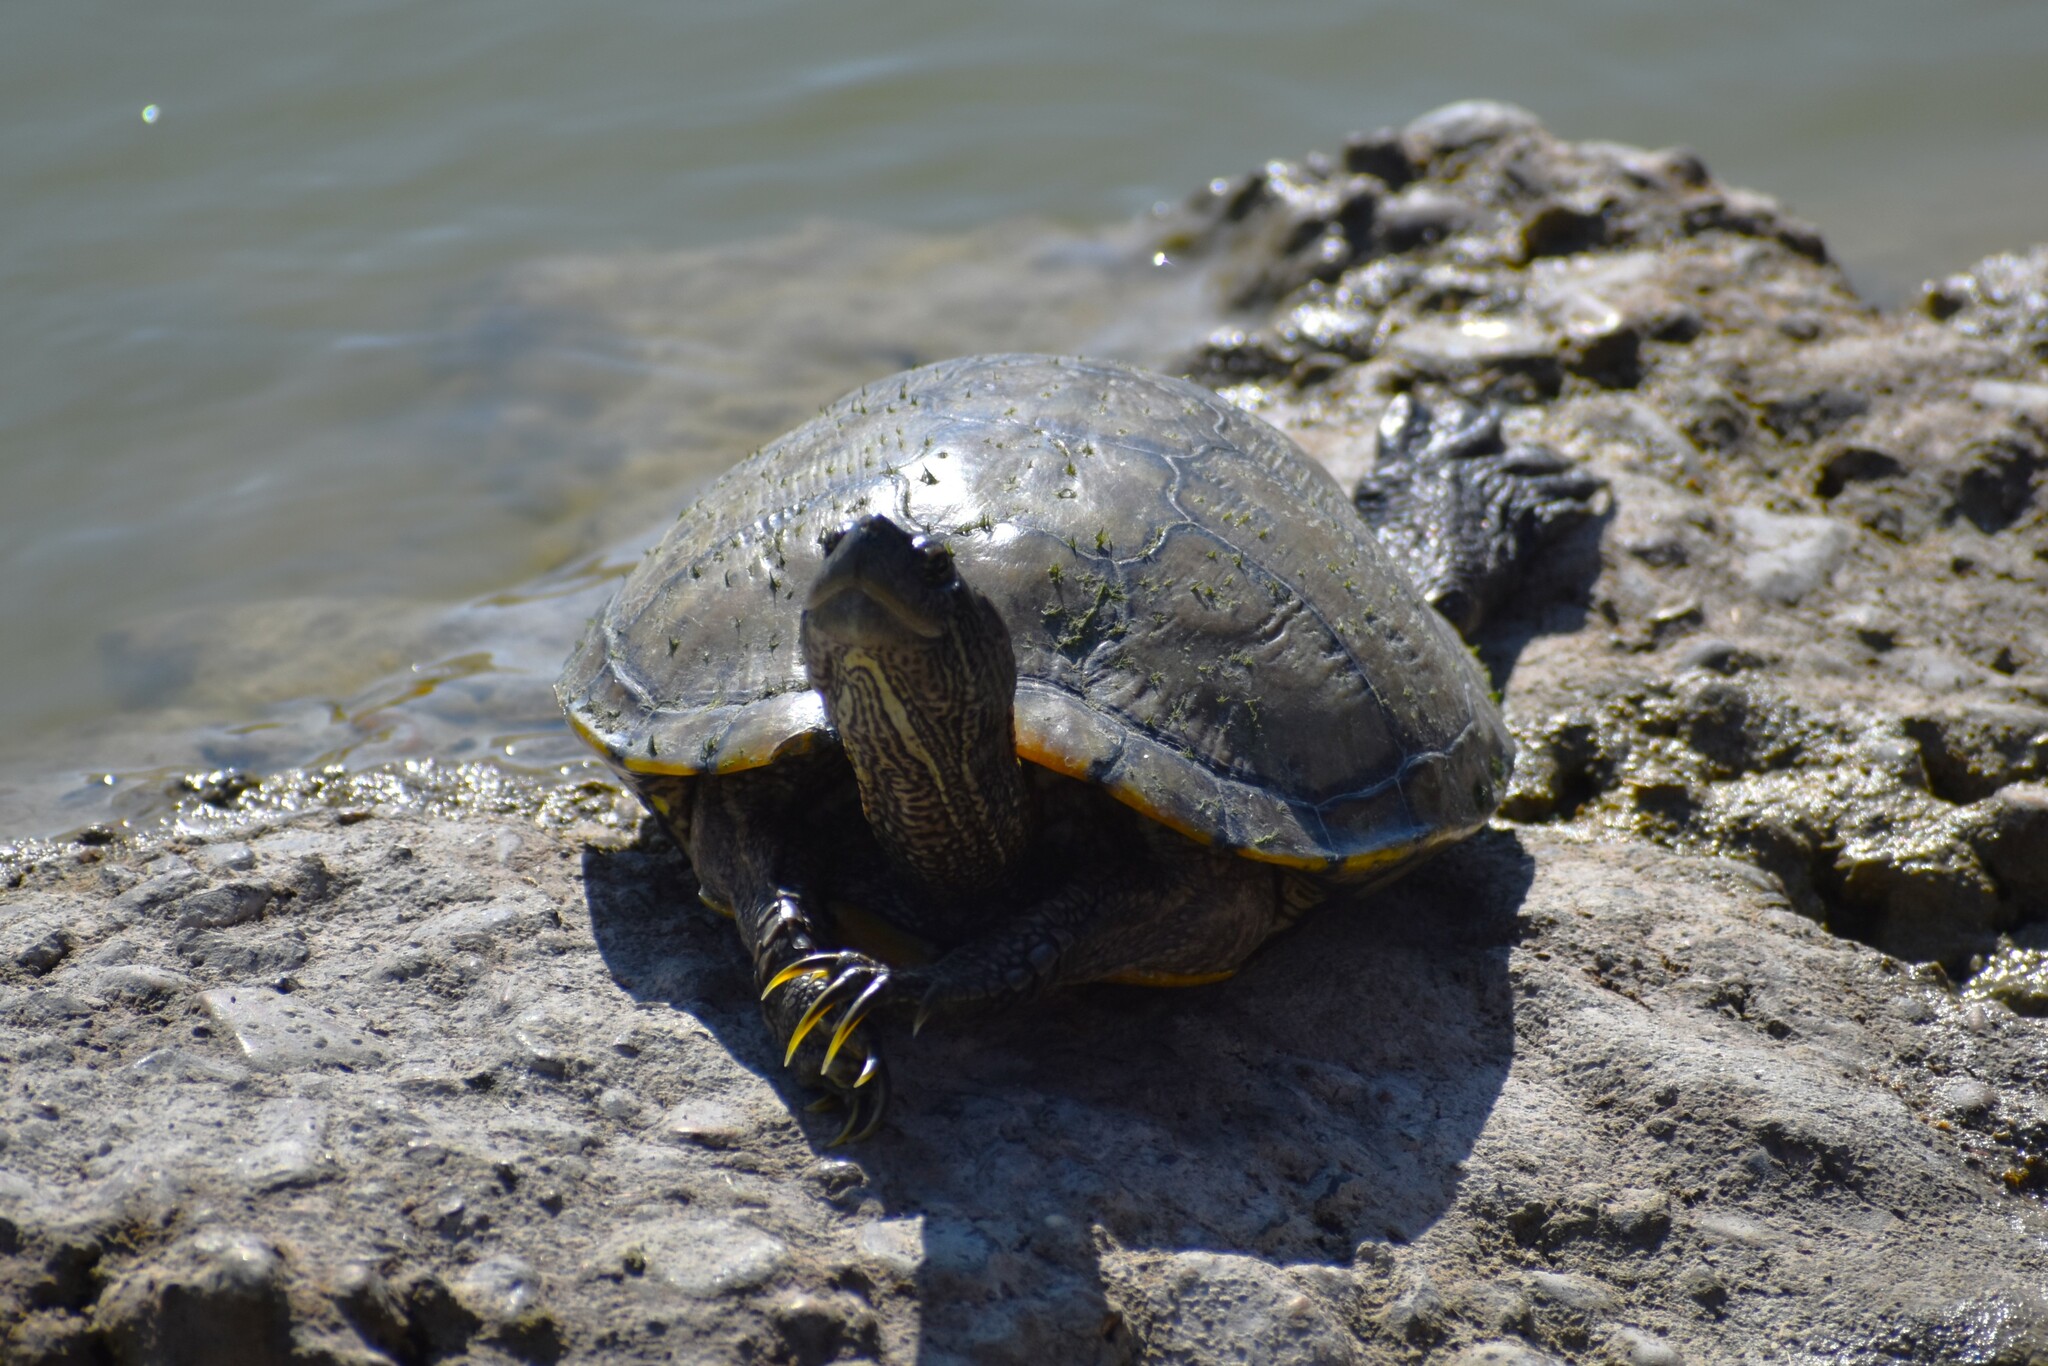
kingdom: Animalia
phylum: Chordata
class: Testudines
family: Emydidae
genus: Trachemys
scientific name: Trachemys scripta
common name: Slider
